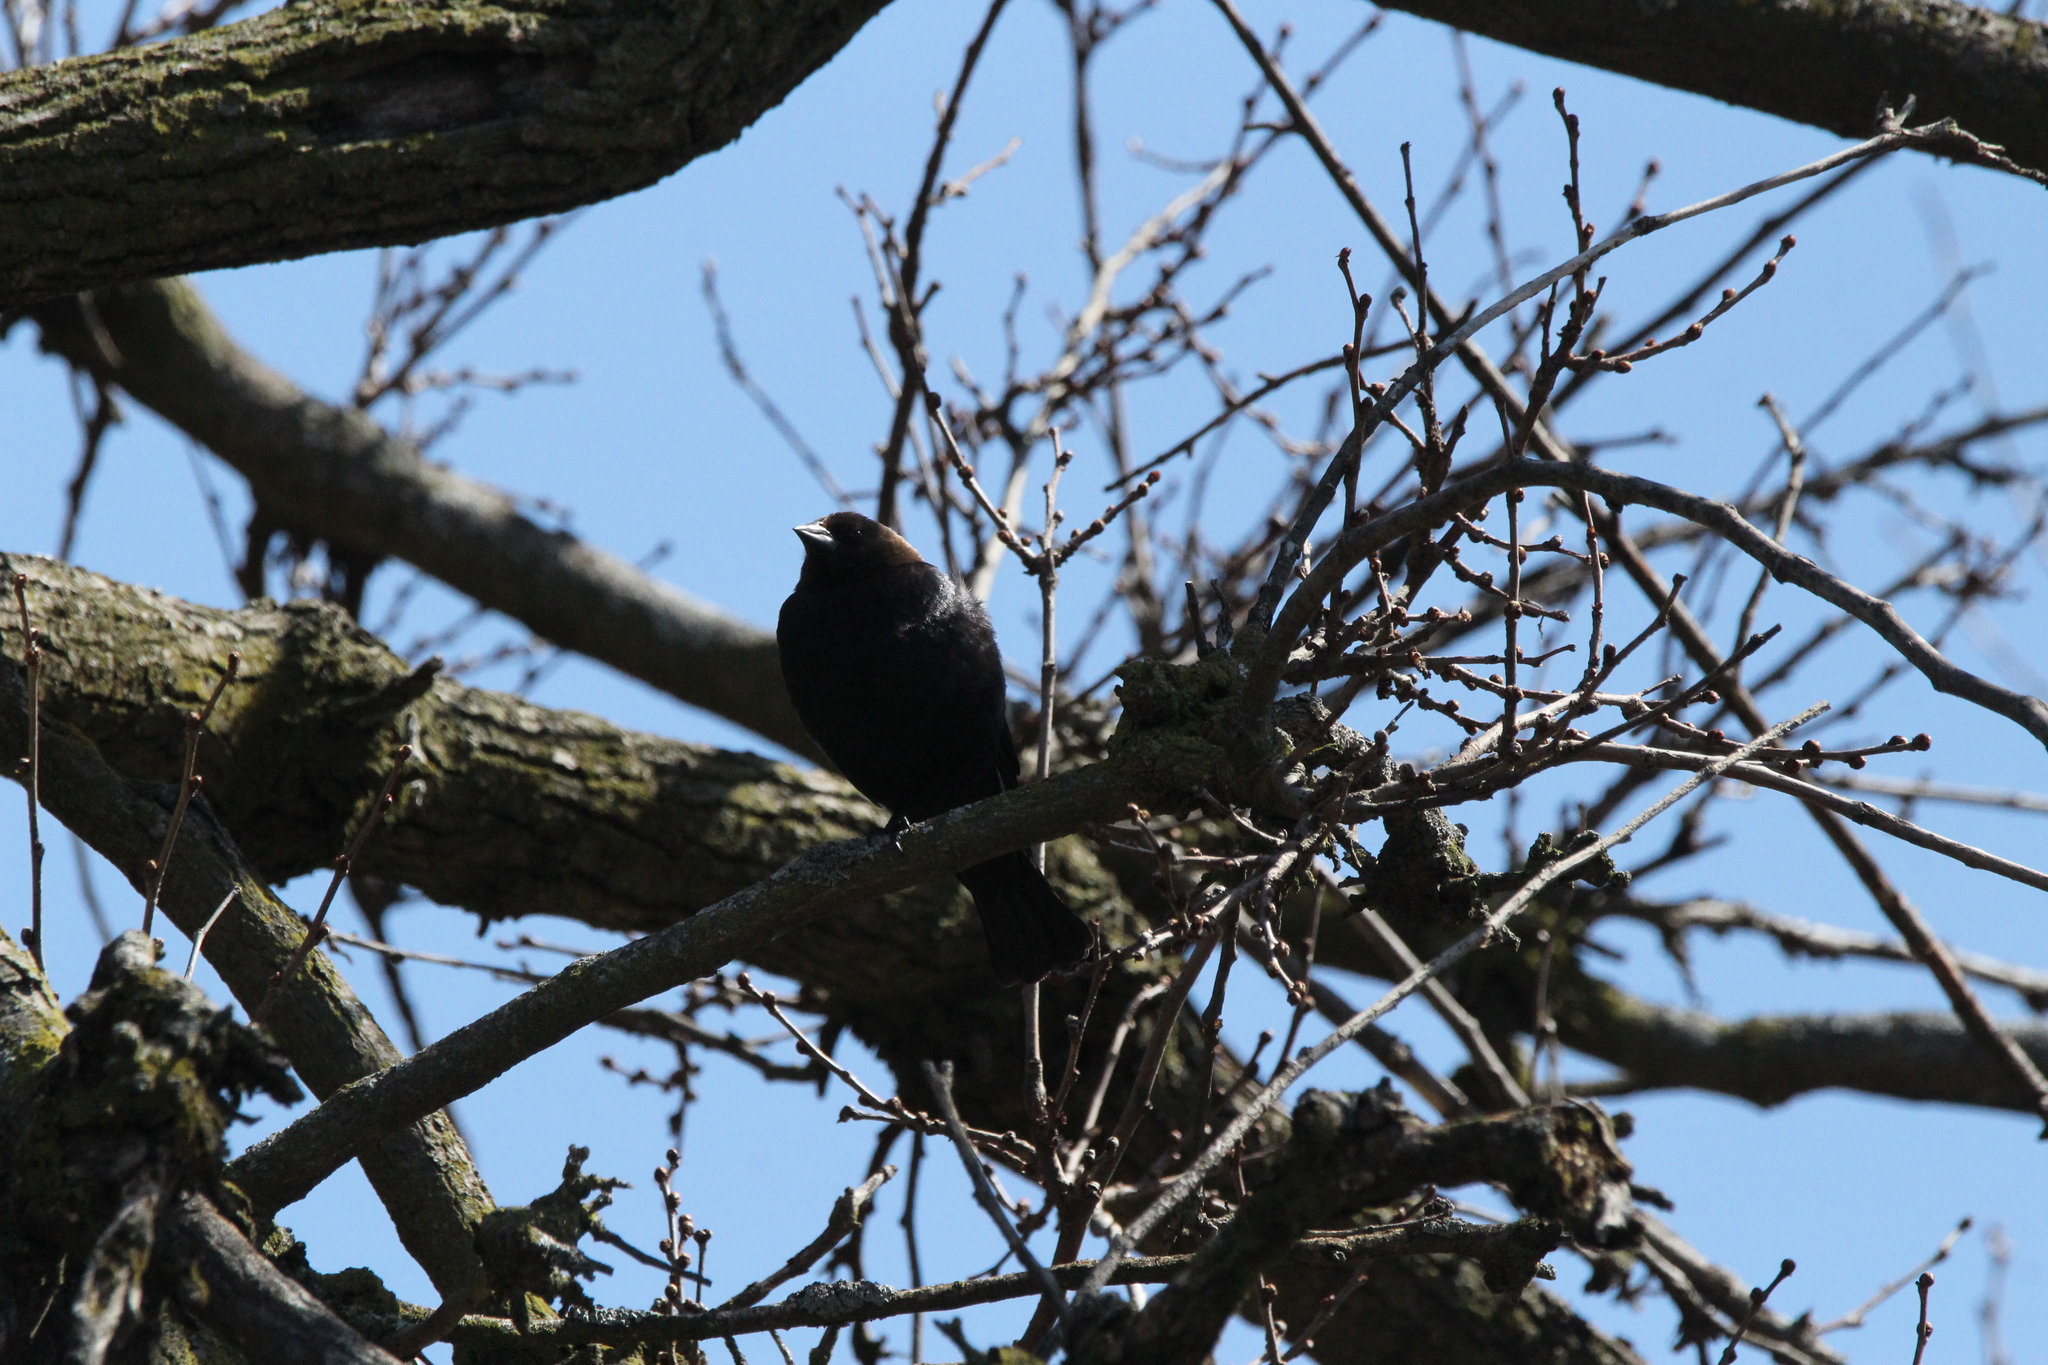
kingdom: Animalia
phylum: Chordata
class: Aves
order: Passeriformes
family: Icteridae
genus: Molothrus
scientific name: Molothrus ater
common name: Brown-headed cowbird
